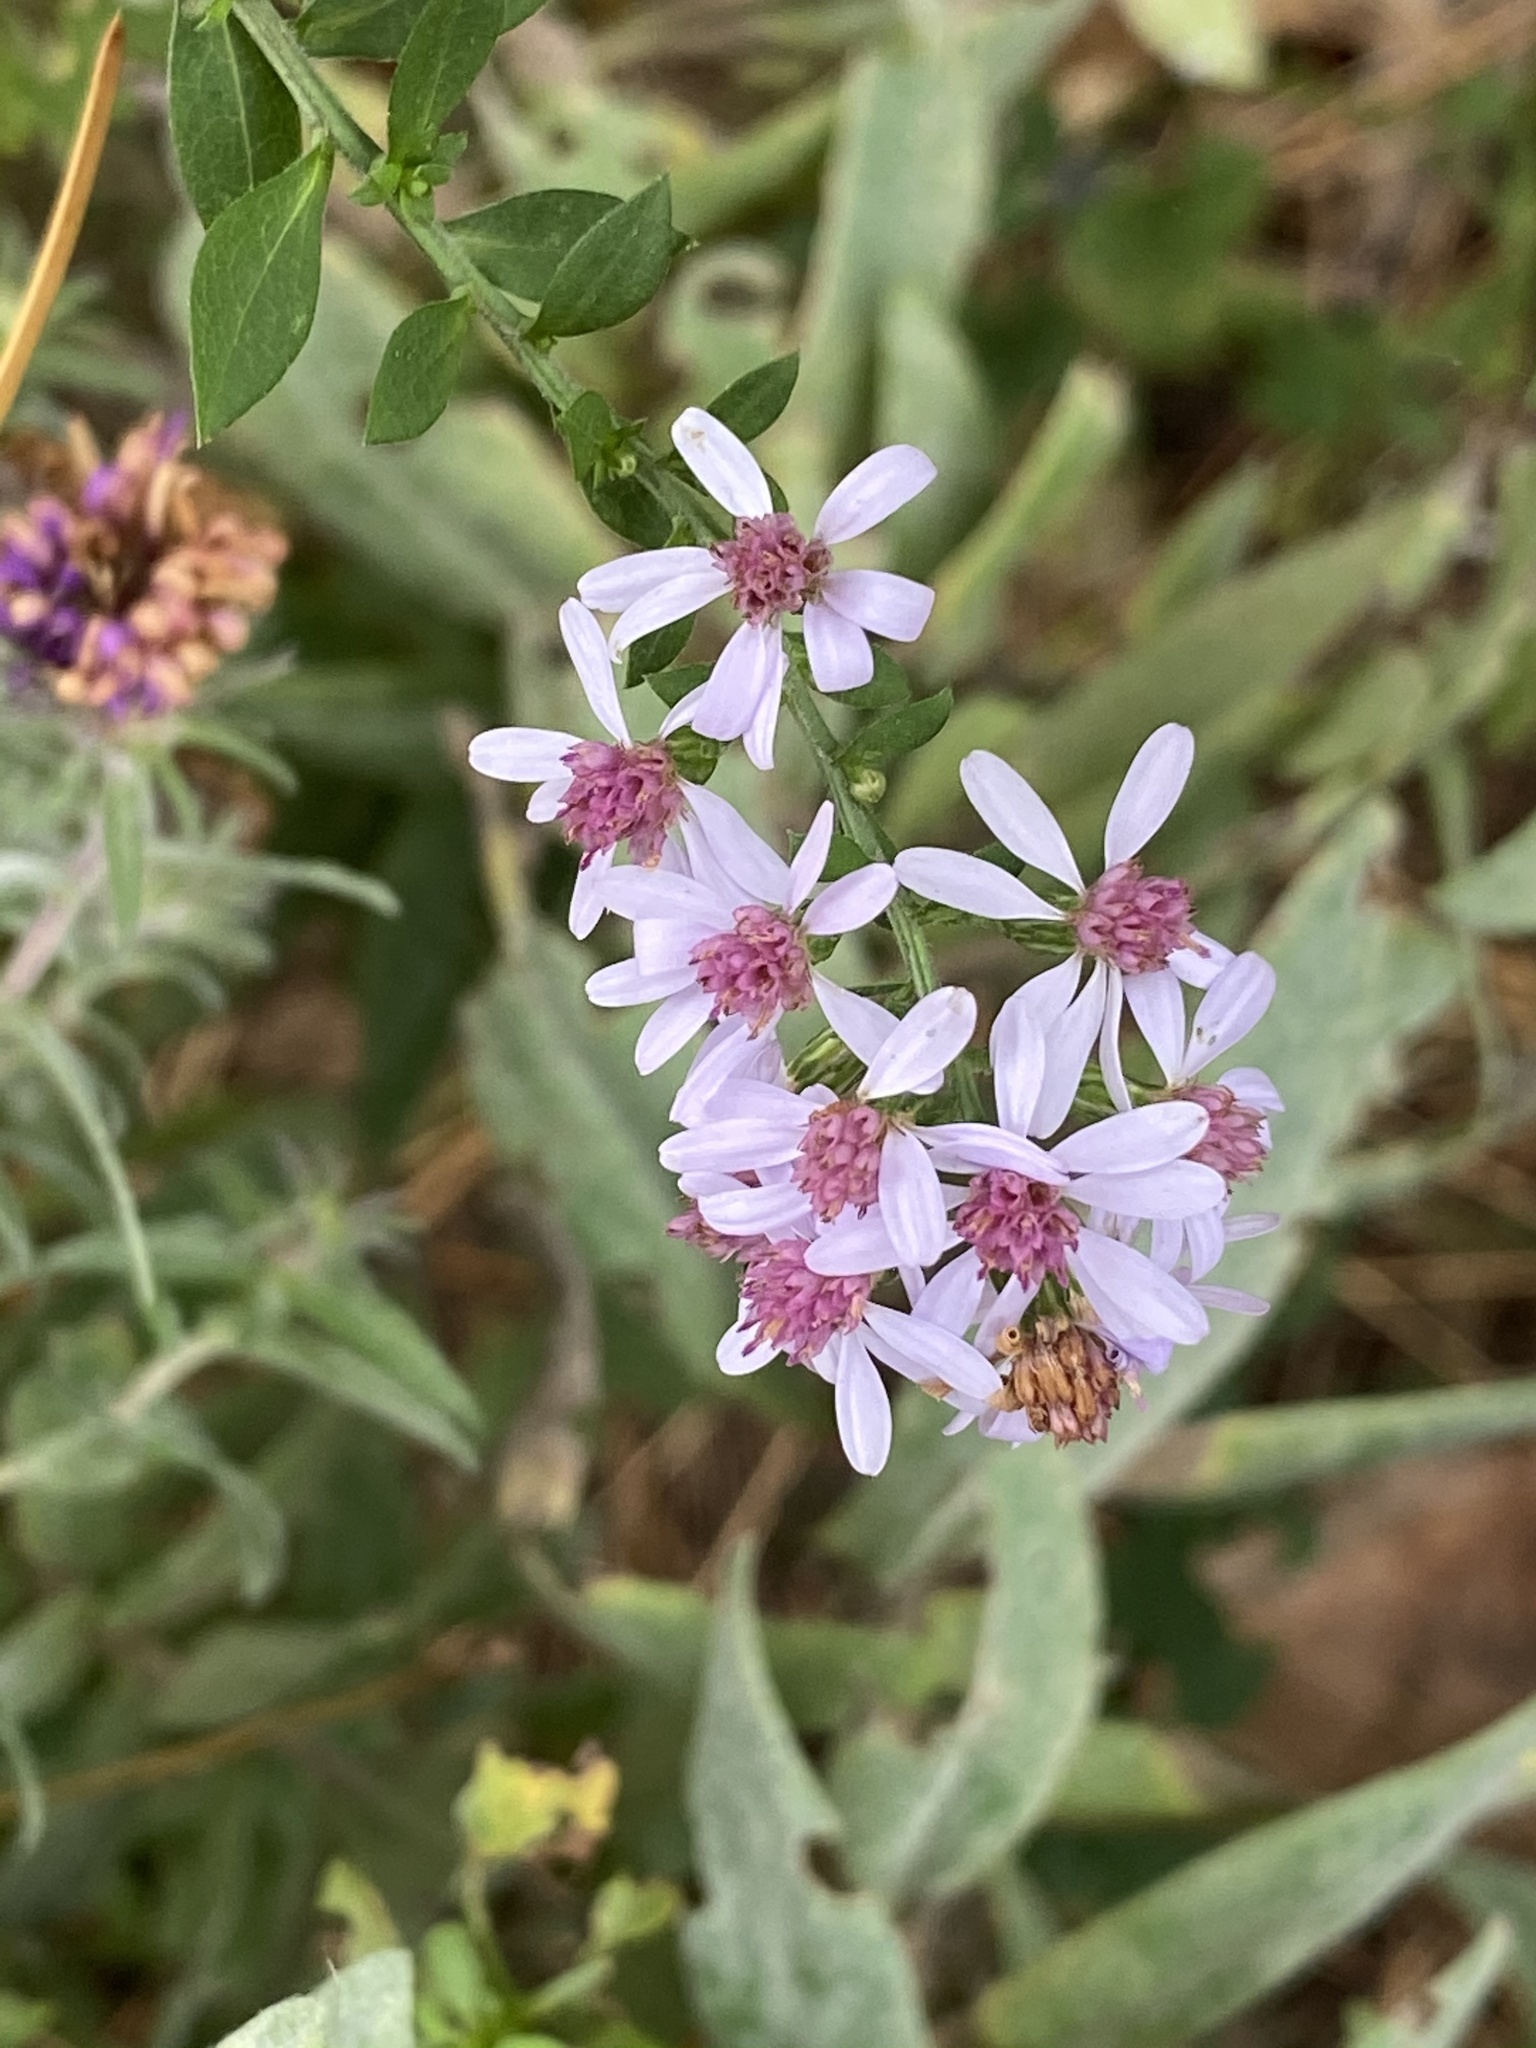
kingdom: Plantae
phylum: Tracheophyta
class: Magnoliopsida
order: Asterales
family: Asteraceae
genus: Symphyotrichum
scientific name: Symphyotrichum cordifolium
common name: Beeweed
